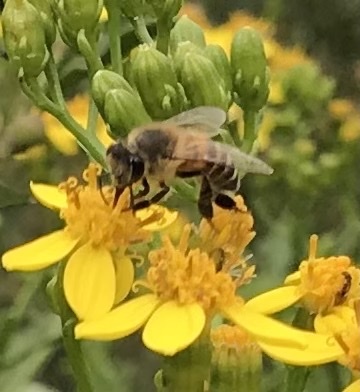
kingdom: Animalia
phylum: Arthropoda
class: Insecta
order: Hymenoptera
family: Apidae
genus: Apis
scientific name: Apis mellifera
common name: Honey bee
